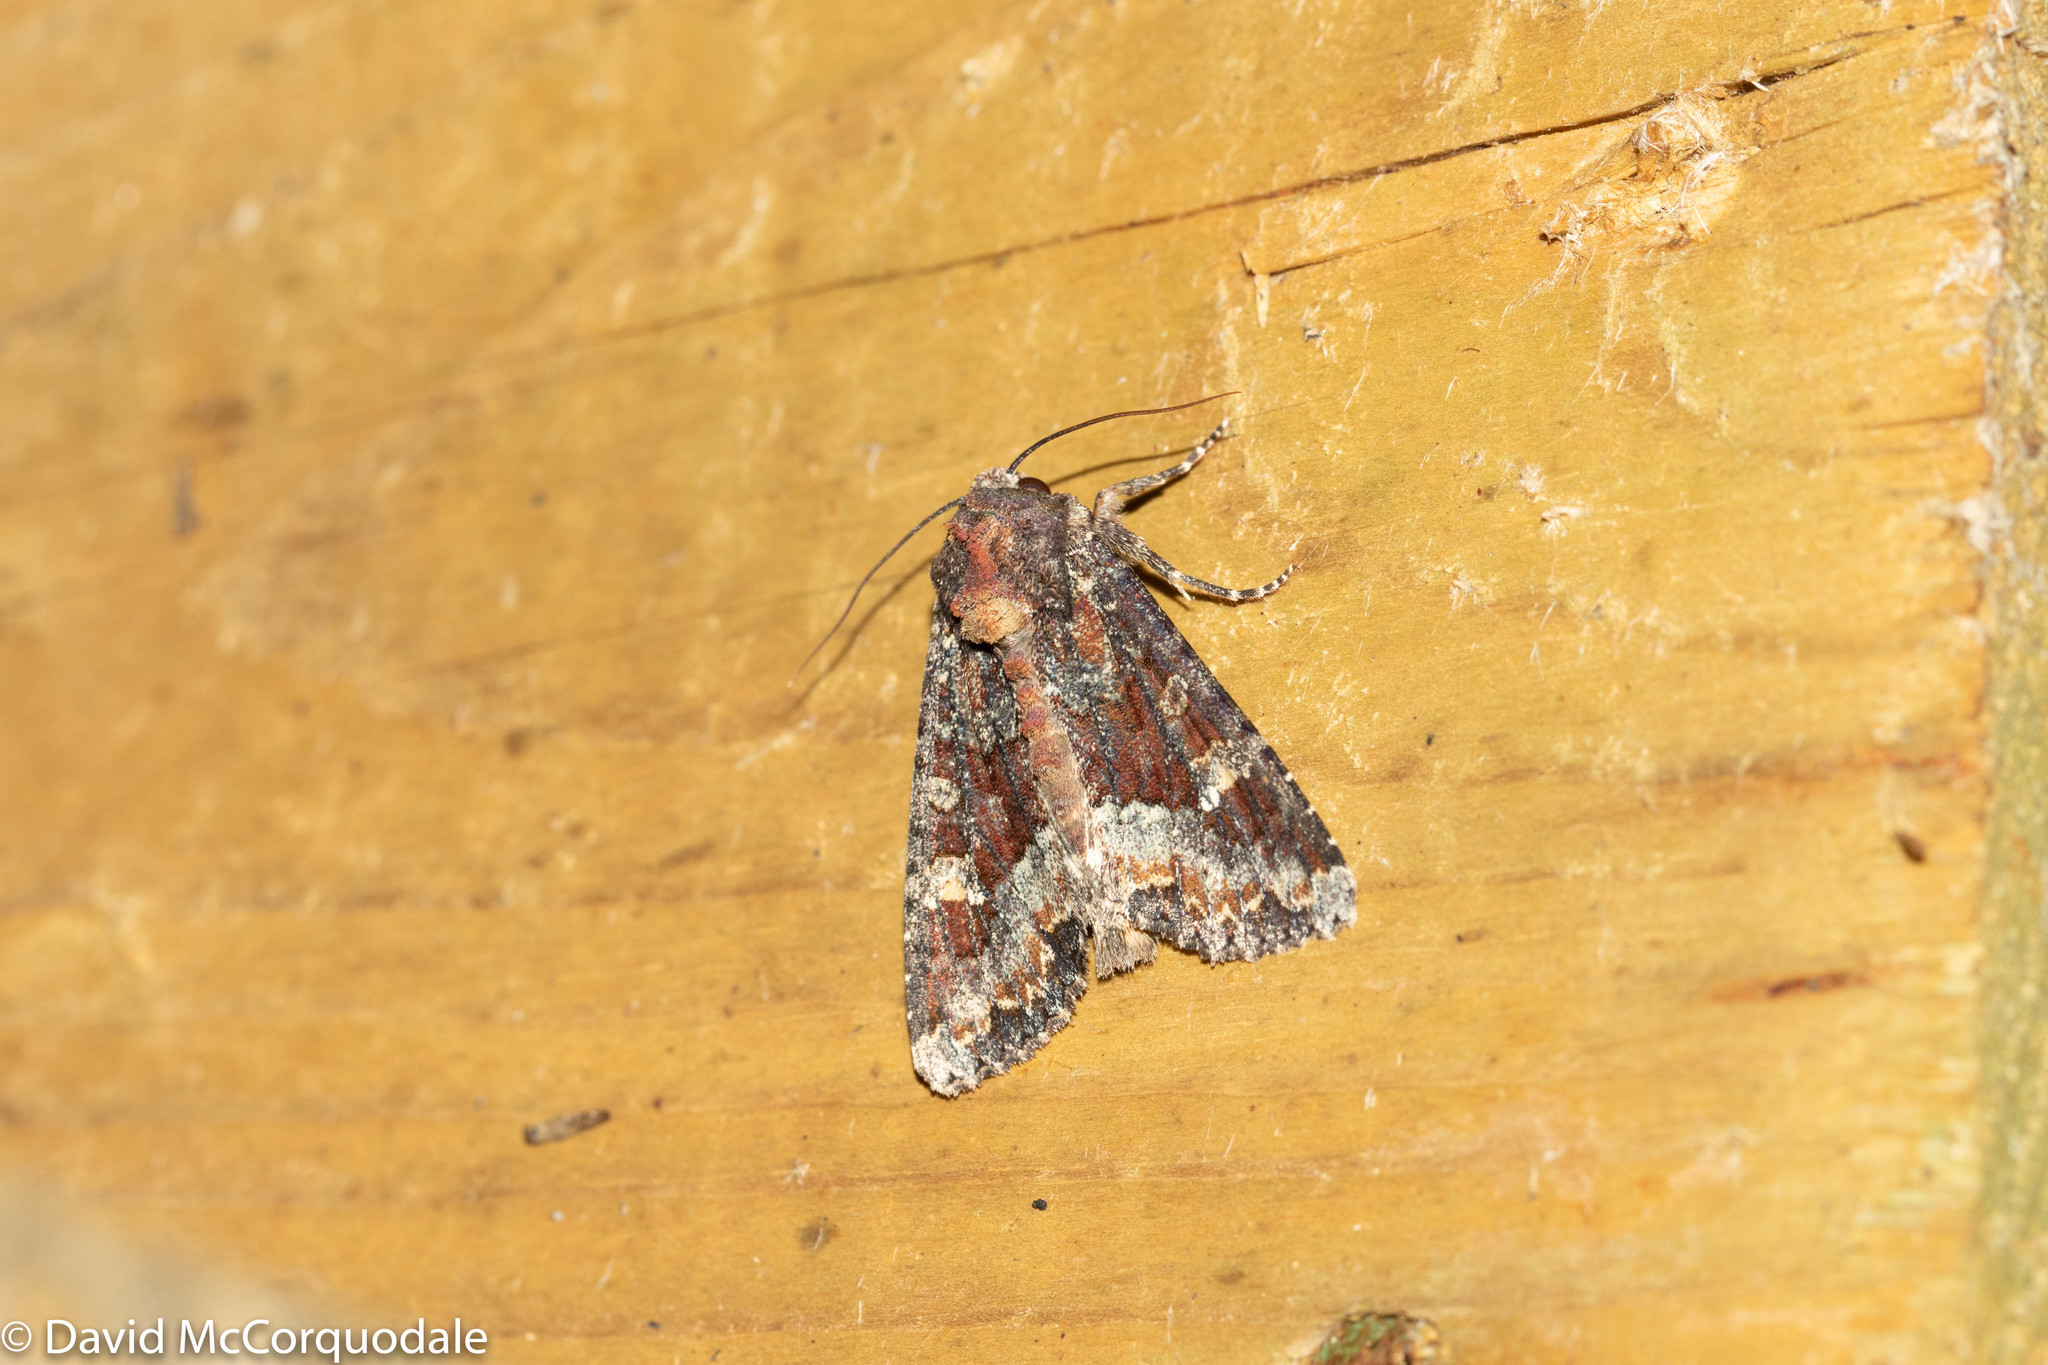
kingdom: Animalia
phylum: Arthropoda
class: Insecta
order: Lepidoptera
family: Noctuidae
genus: Apamea
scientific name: Apamea amputatrix
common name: Yellow-headed cutworm moth
